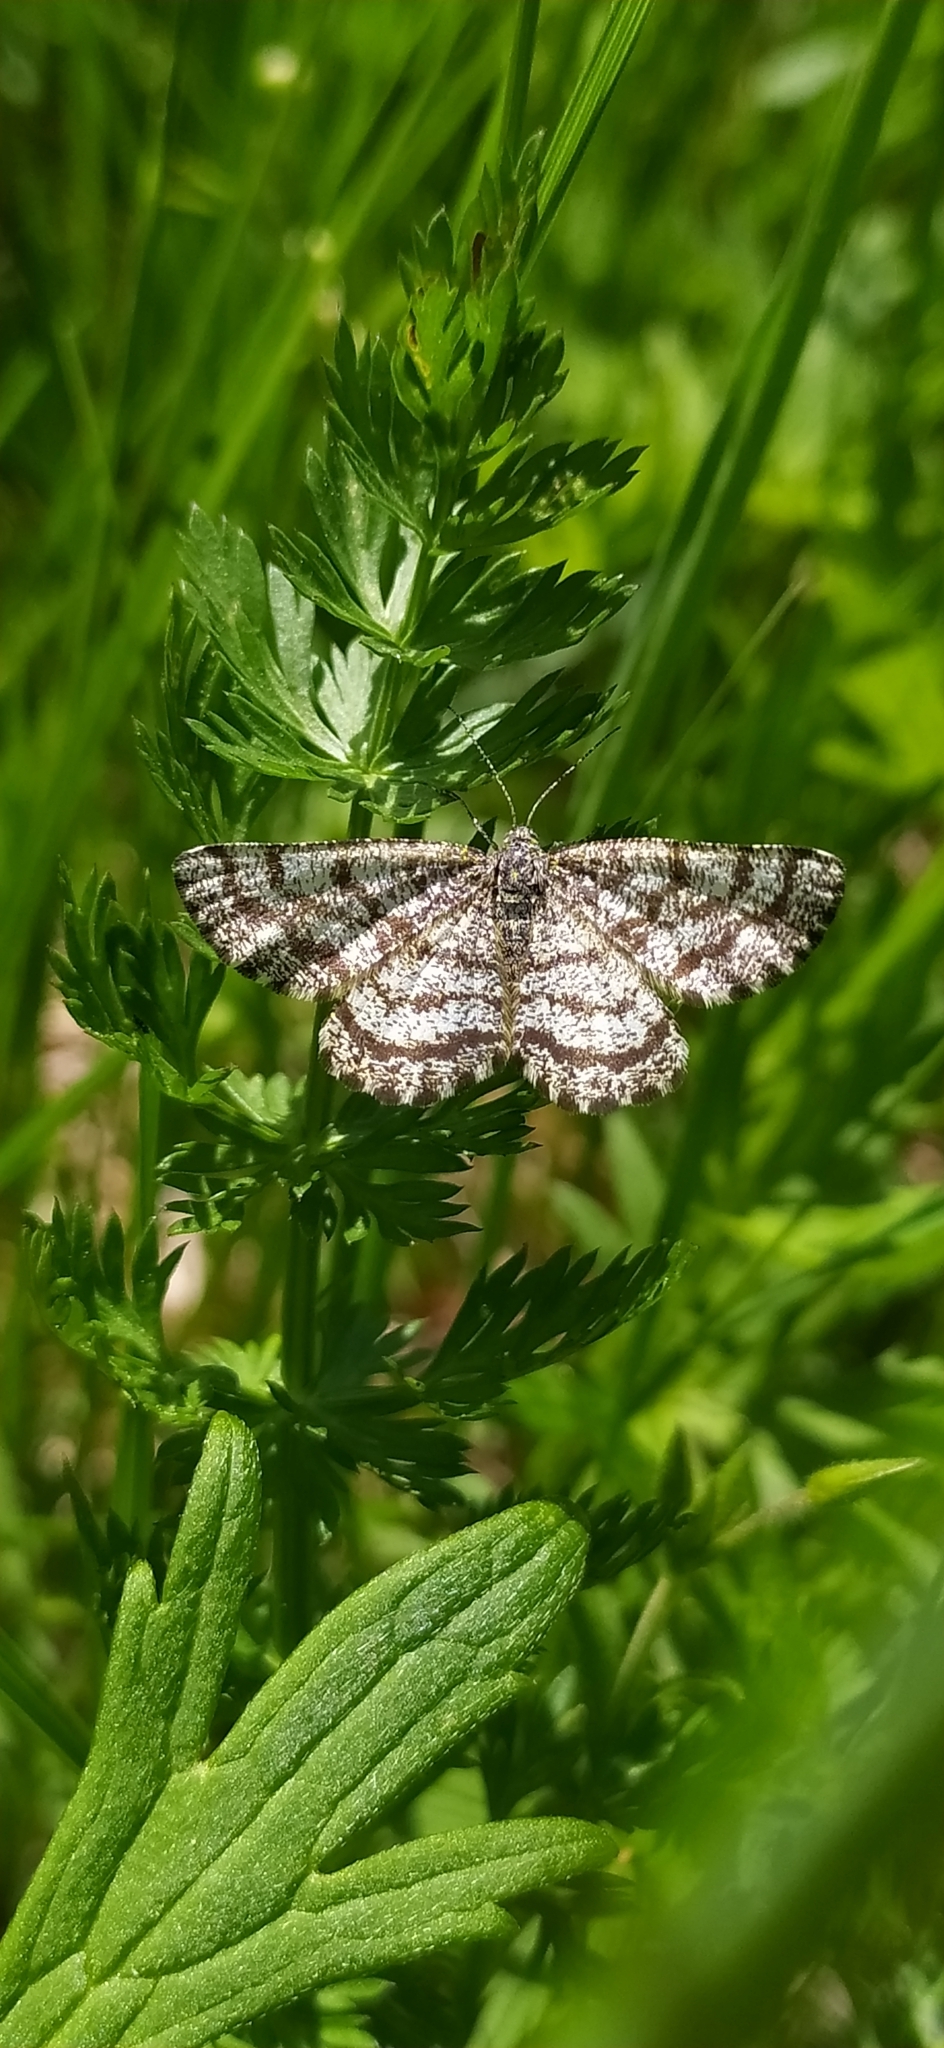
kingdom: Animalia
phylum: Arthropoda
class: Insecta
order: Lepidoptera
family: Geometridae
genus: Ematurga
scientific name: Ematurga atomaria
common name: Common heath
